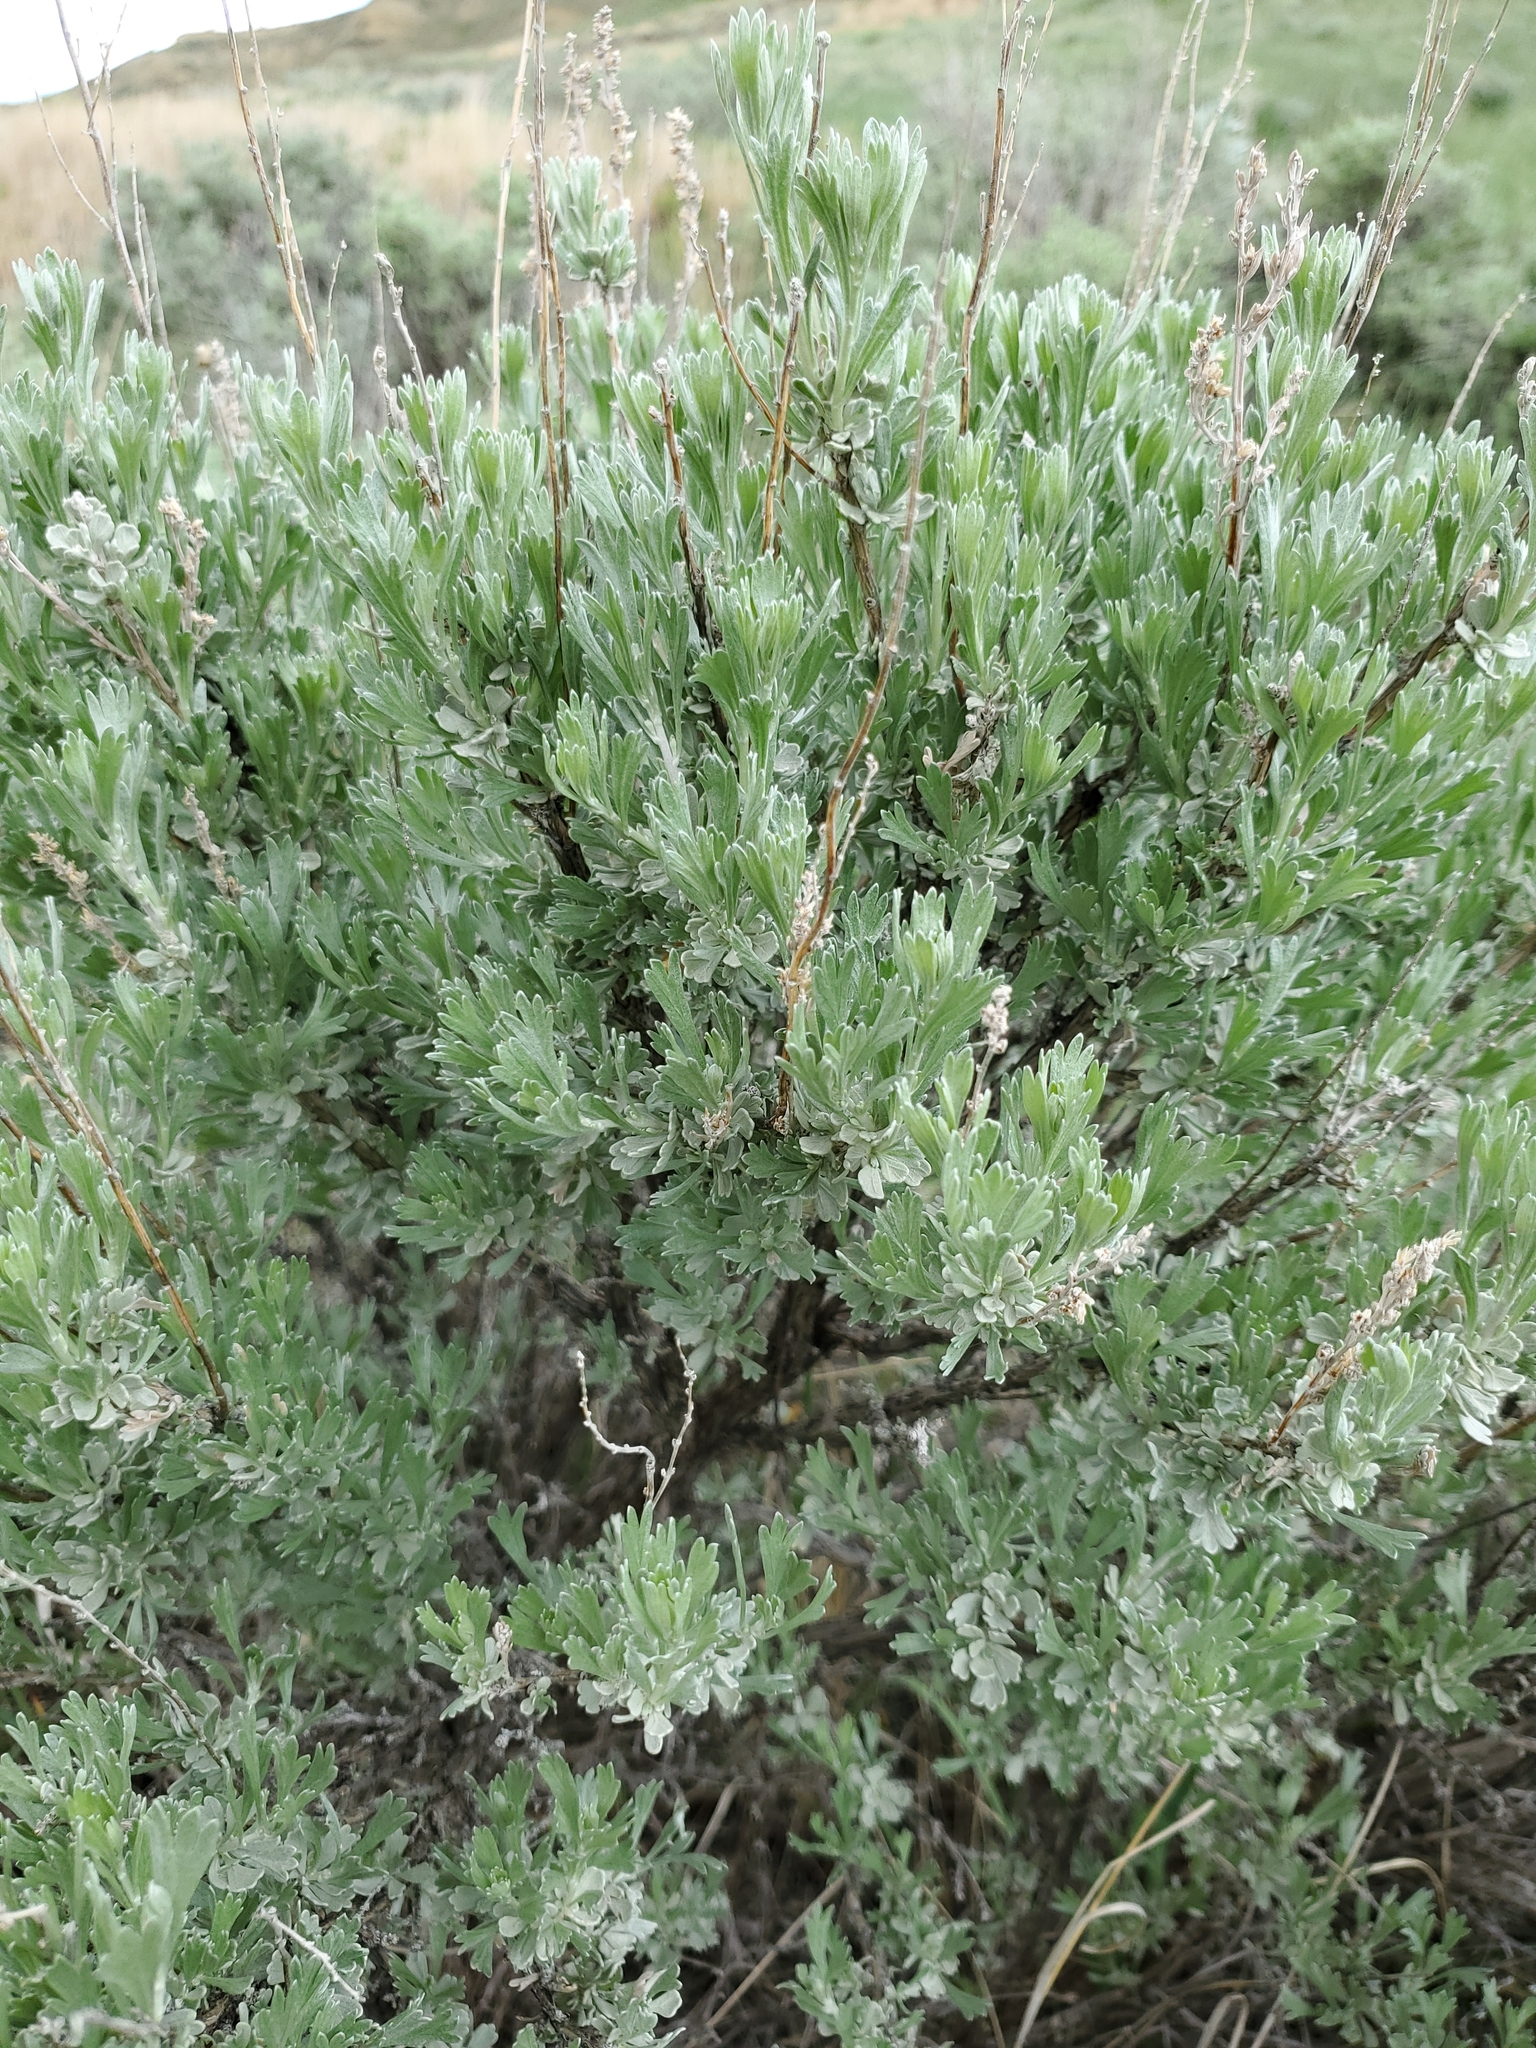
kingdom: Plantae
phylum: Tracheophyta
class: Magnoliopsida
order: Asterales
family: Asteraceae
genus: Artemisia
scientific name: Artemisia tridentata
